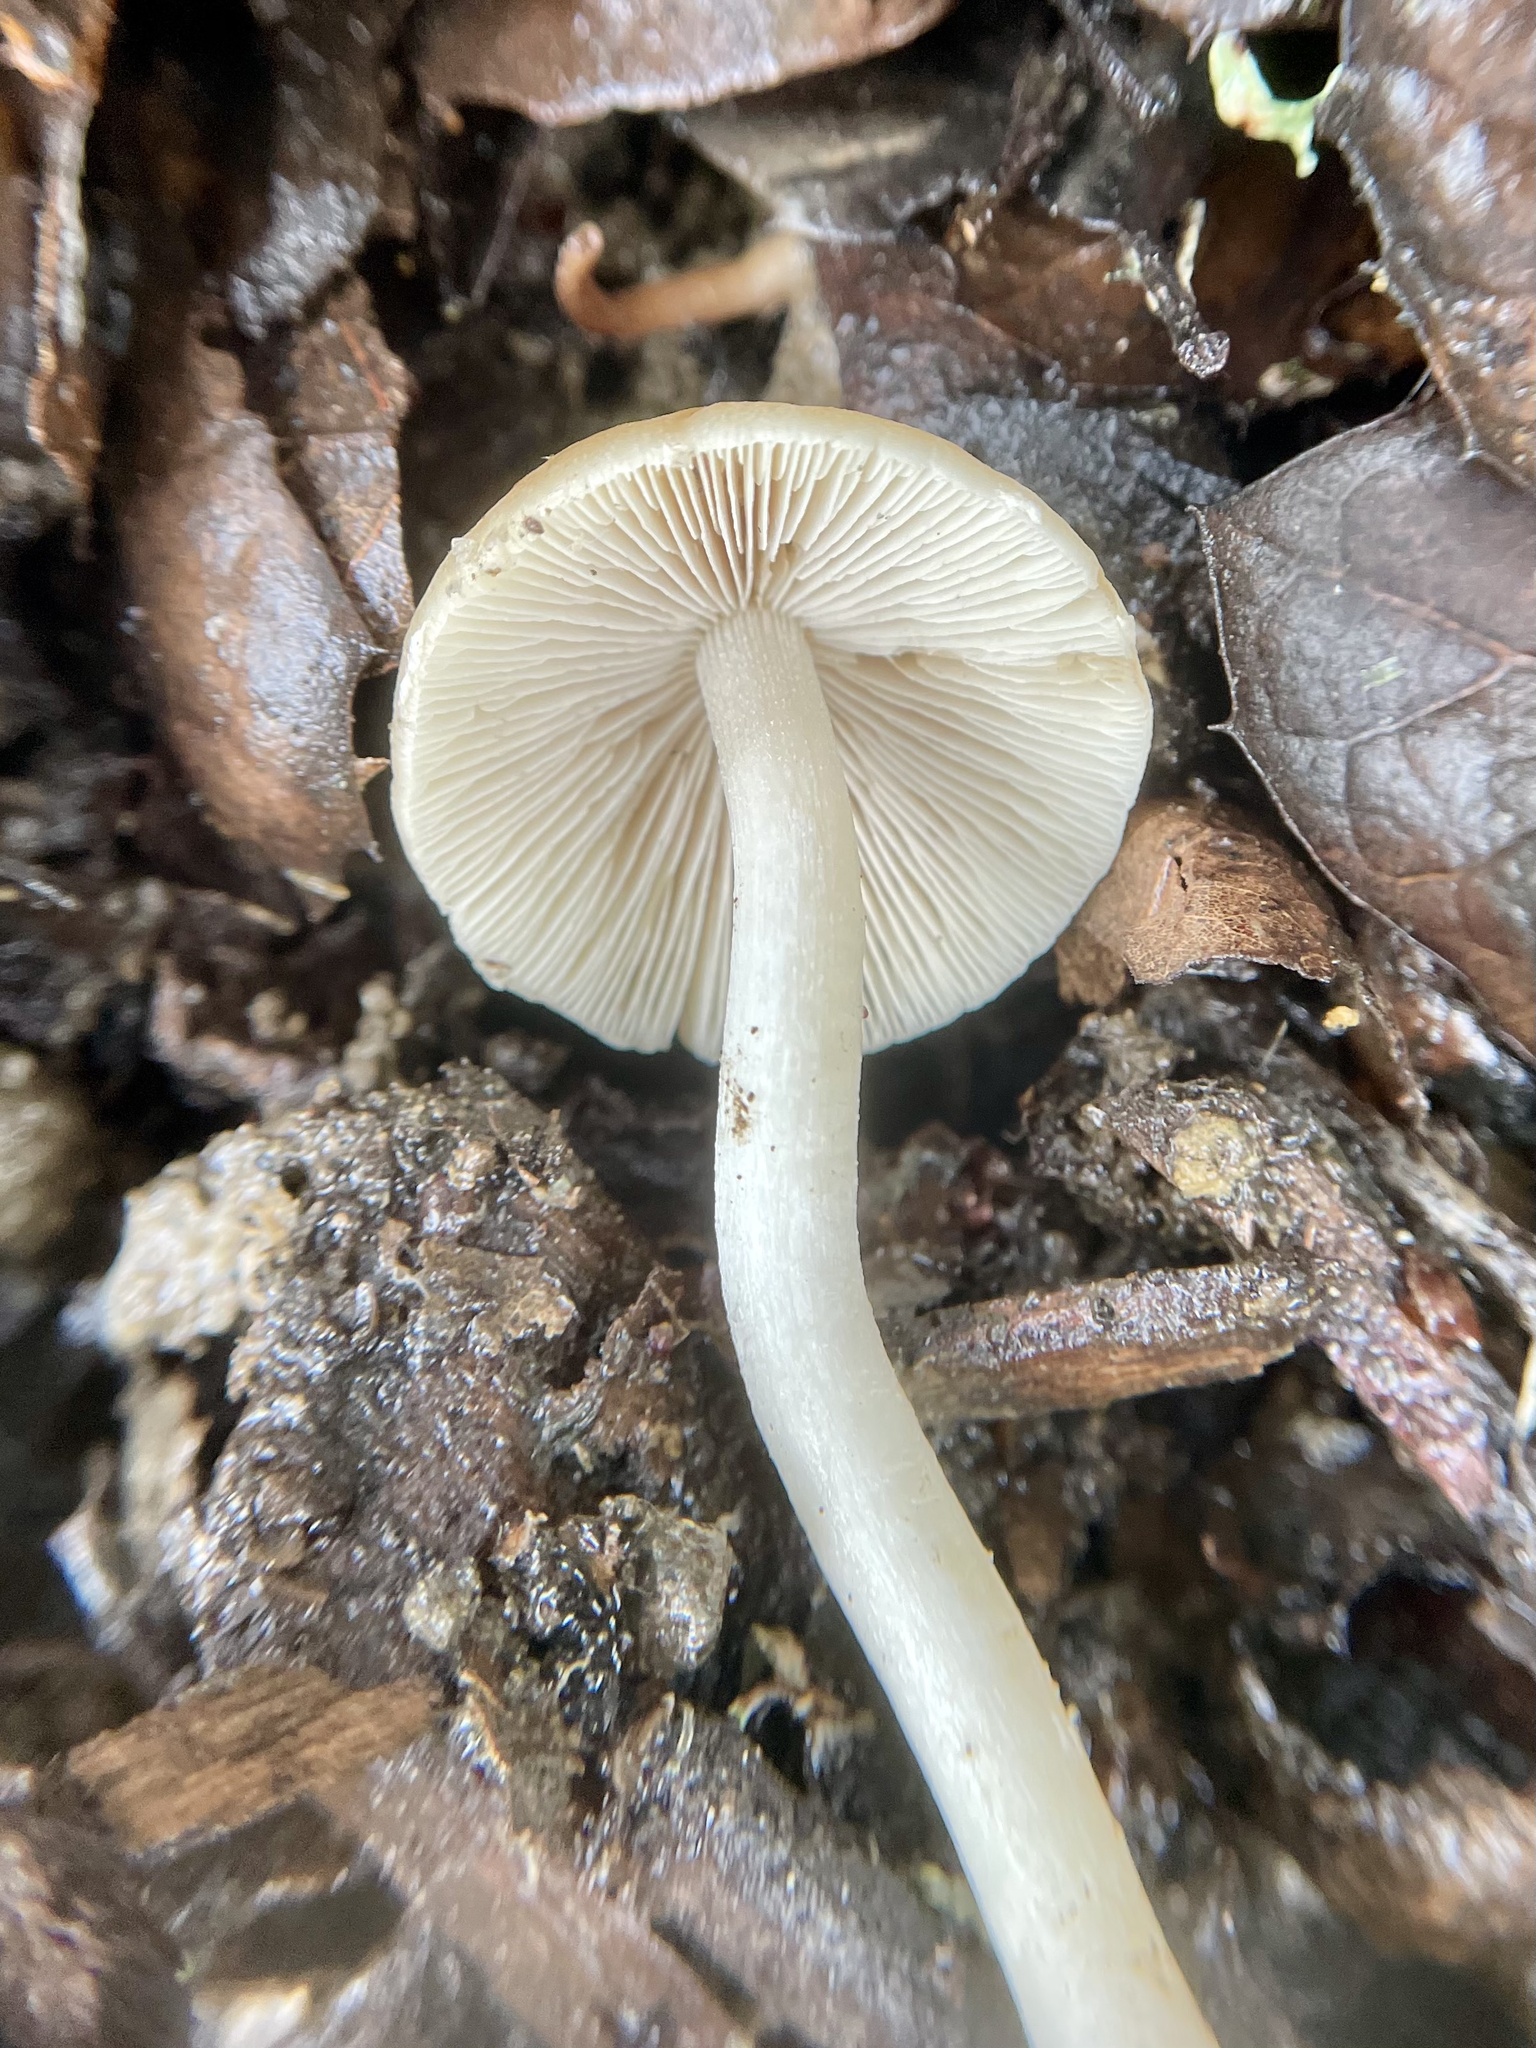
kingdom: Fungi
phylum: Basidiomycota
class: Agaricomycetes
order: Agaricales
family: Psathyrellaceae
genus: Candolleomyces
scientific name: Candolleomyces candolleanus
